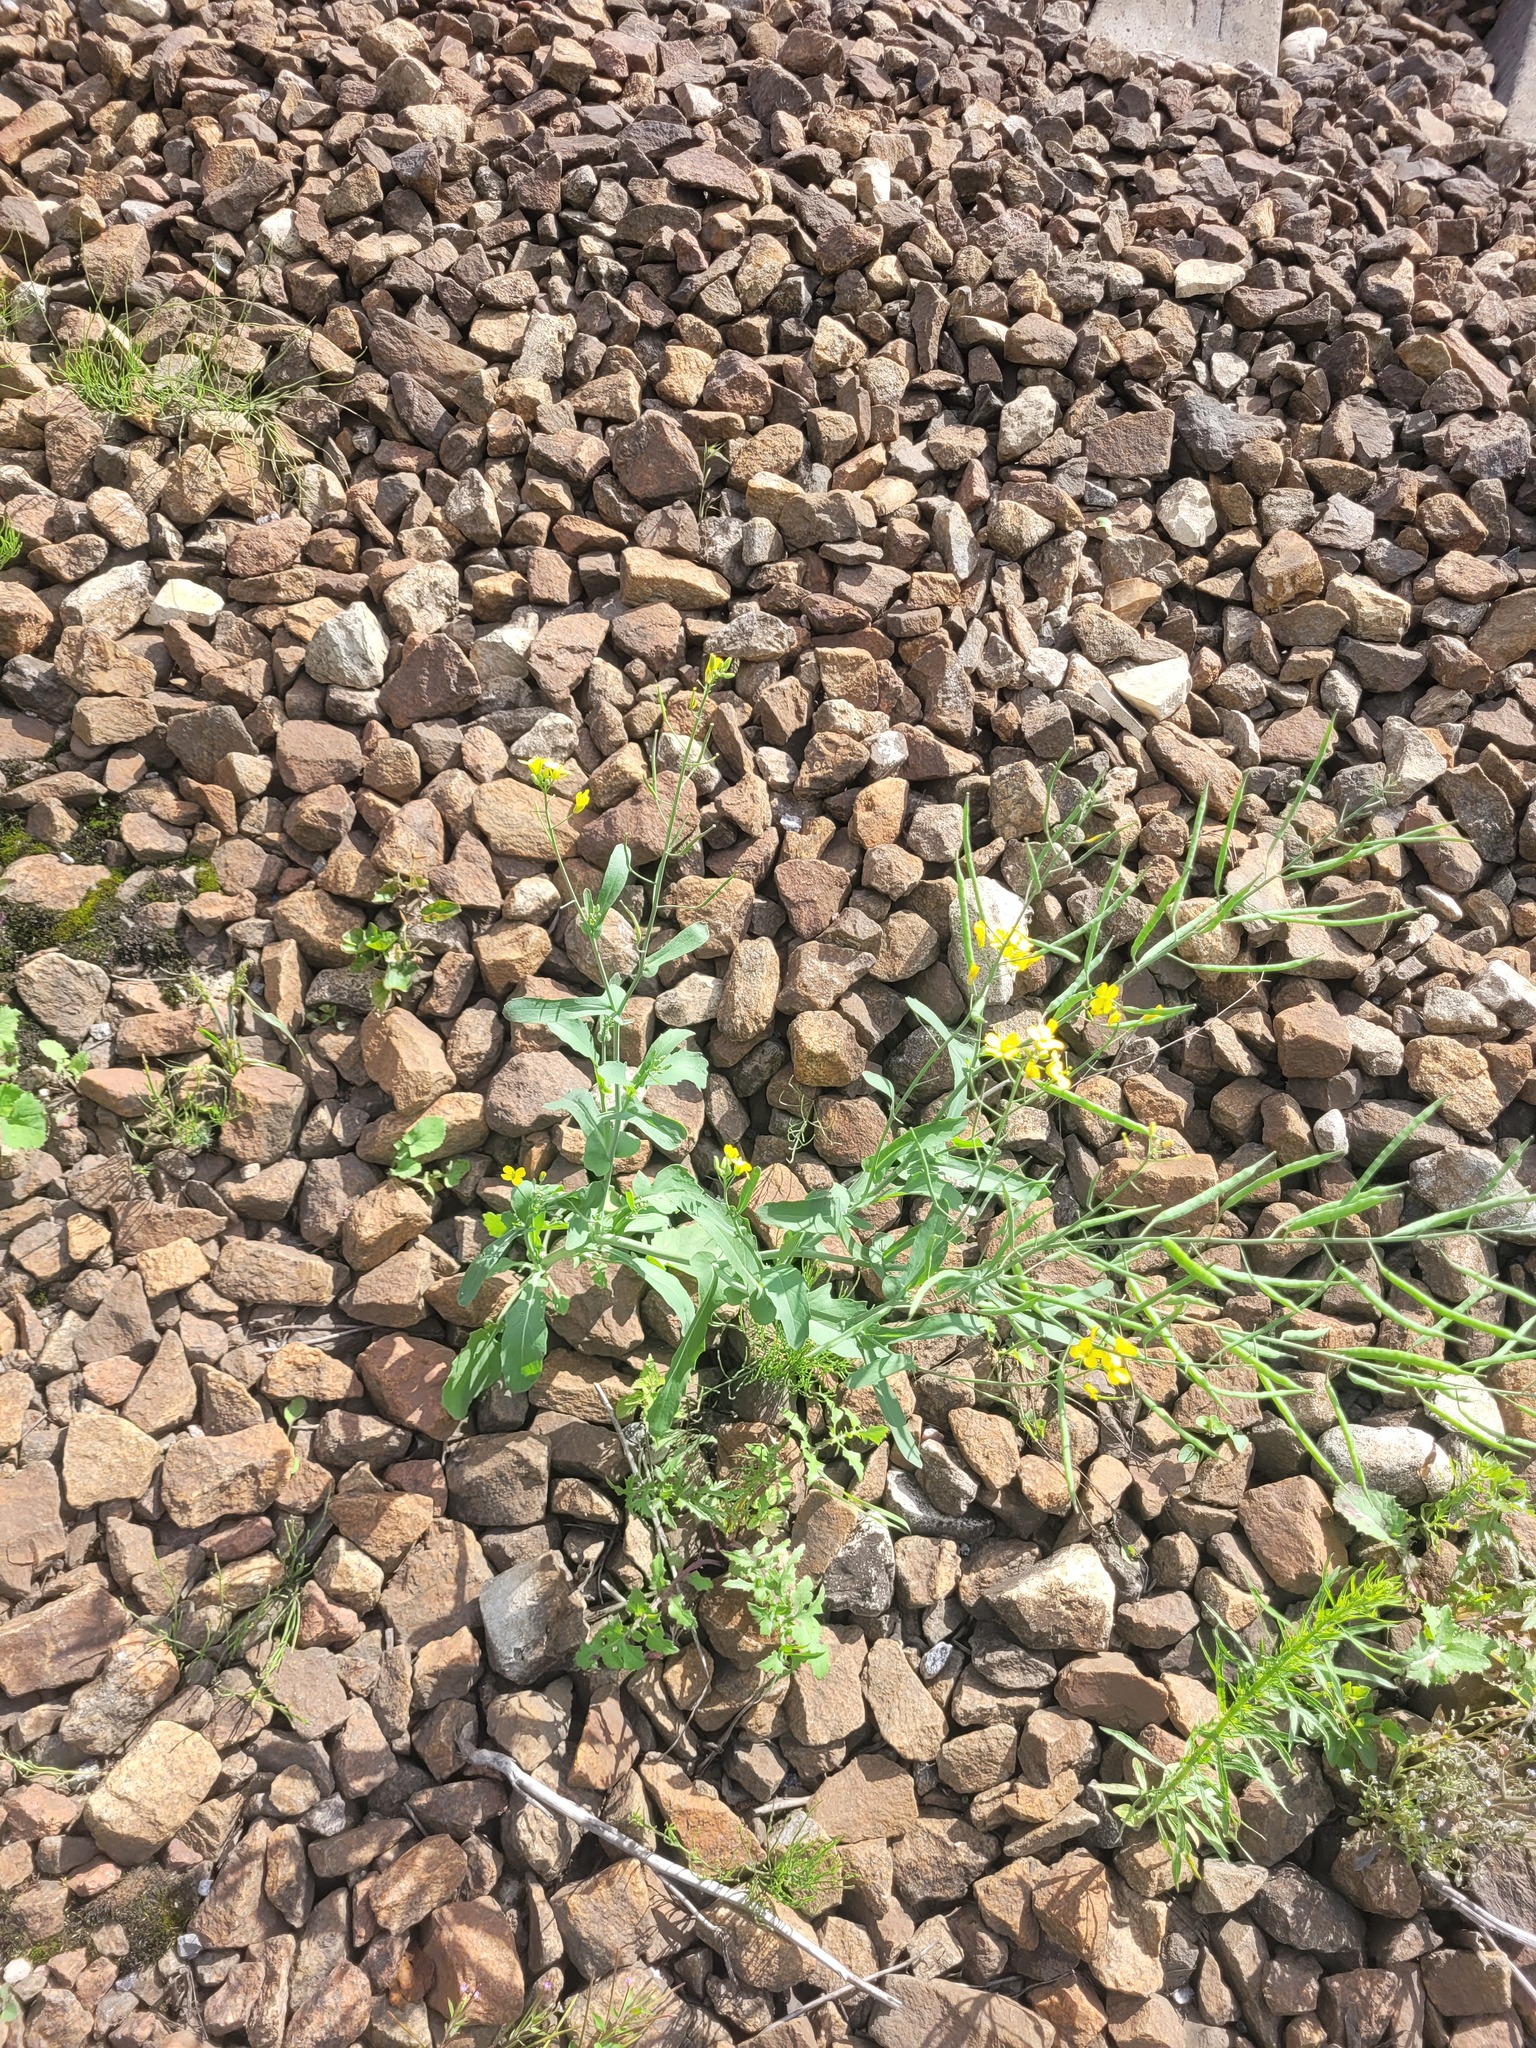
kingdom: Plantae
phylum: Tracheophyta
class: Magnoliopsida
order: Brassicales
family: Brassicaceae
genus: Brassica
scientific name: Brassica napus
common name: Rape
